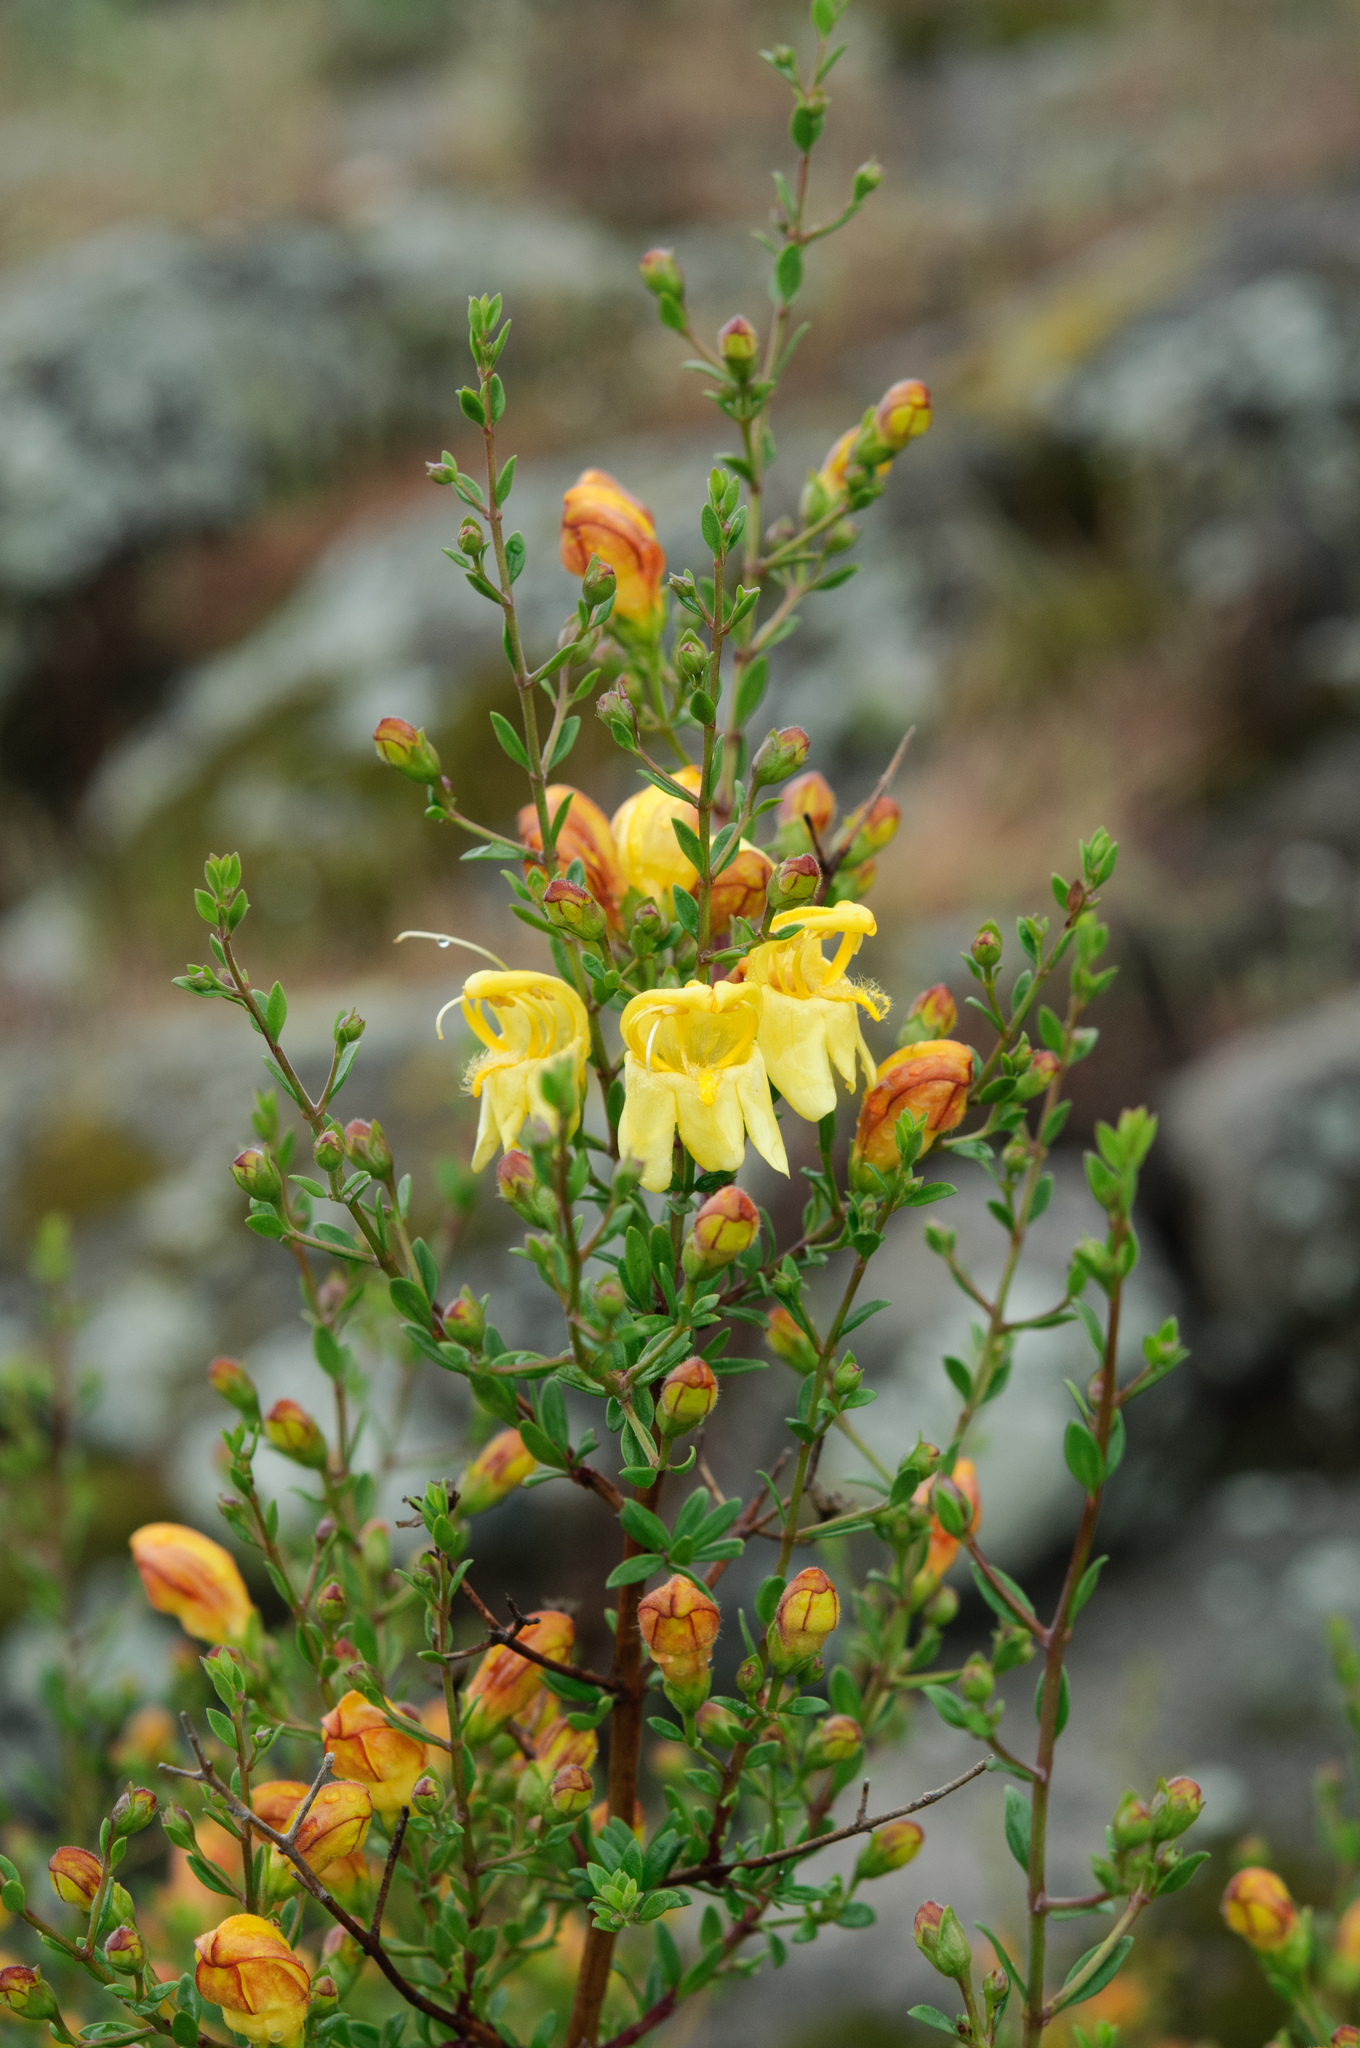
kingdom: Plantae
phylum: Tracheophyta
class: Magnoliopsida
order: Lamiales
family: Plantaginaceae
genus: Keckiella
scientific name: Keckiella antirrhinoides
